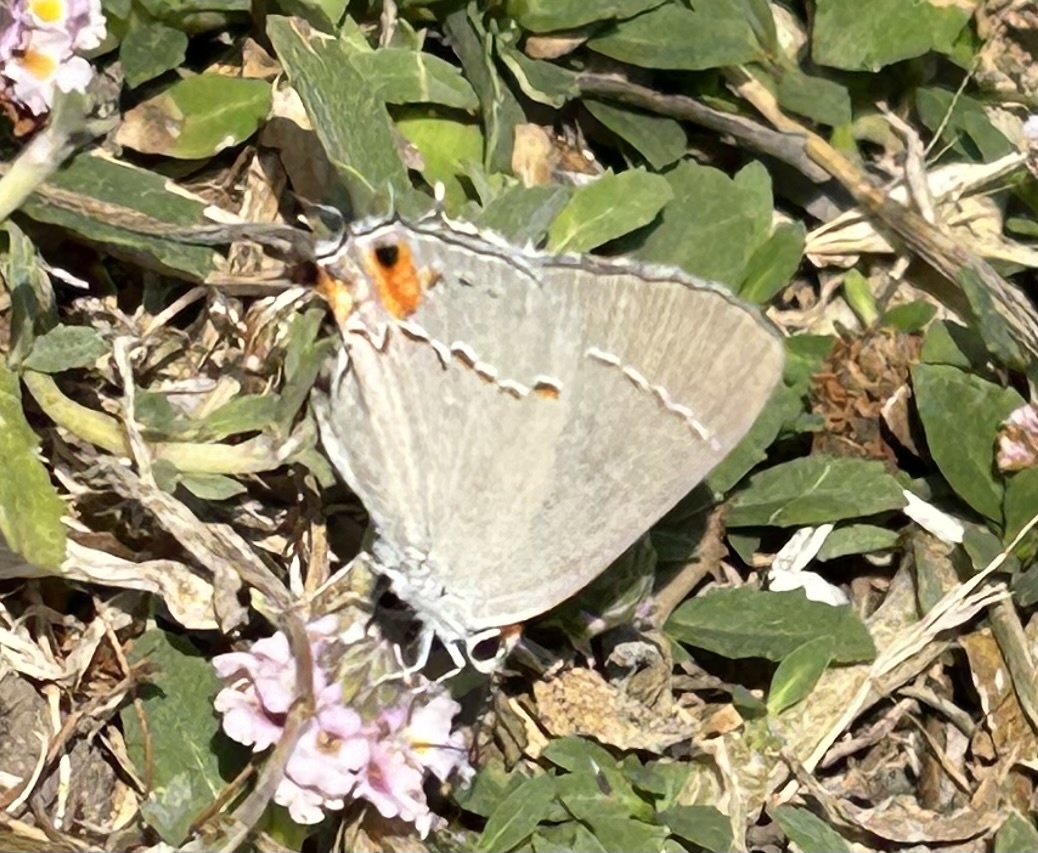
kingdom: Animalia
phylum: Arthropoda
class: Insecta
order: Lepidoptera
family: Lycaenidae
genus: Strymon
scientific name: Strymon melinus
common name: Gray hairstreak
